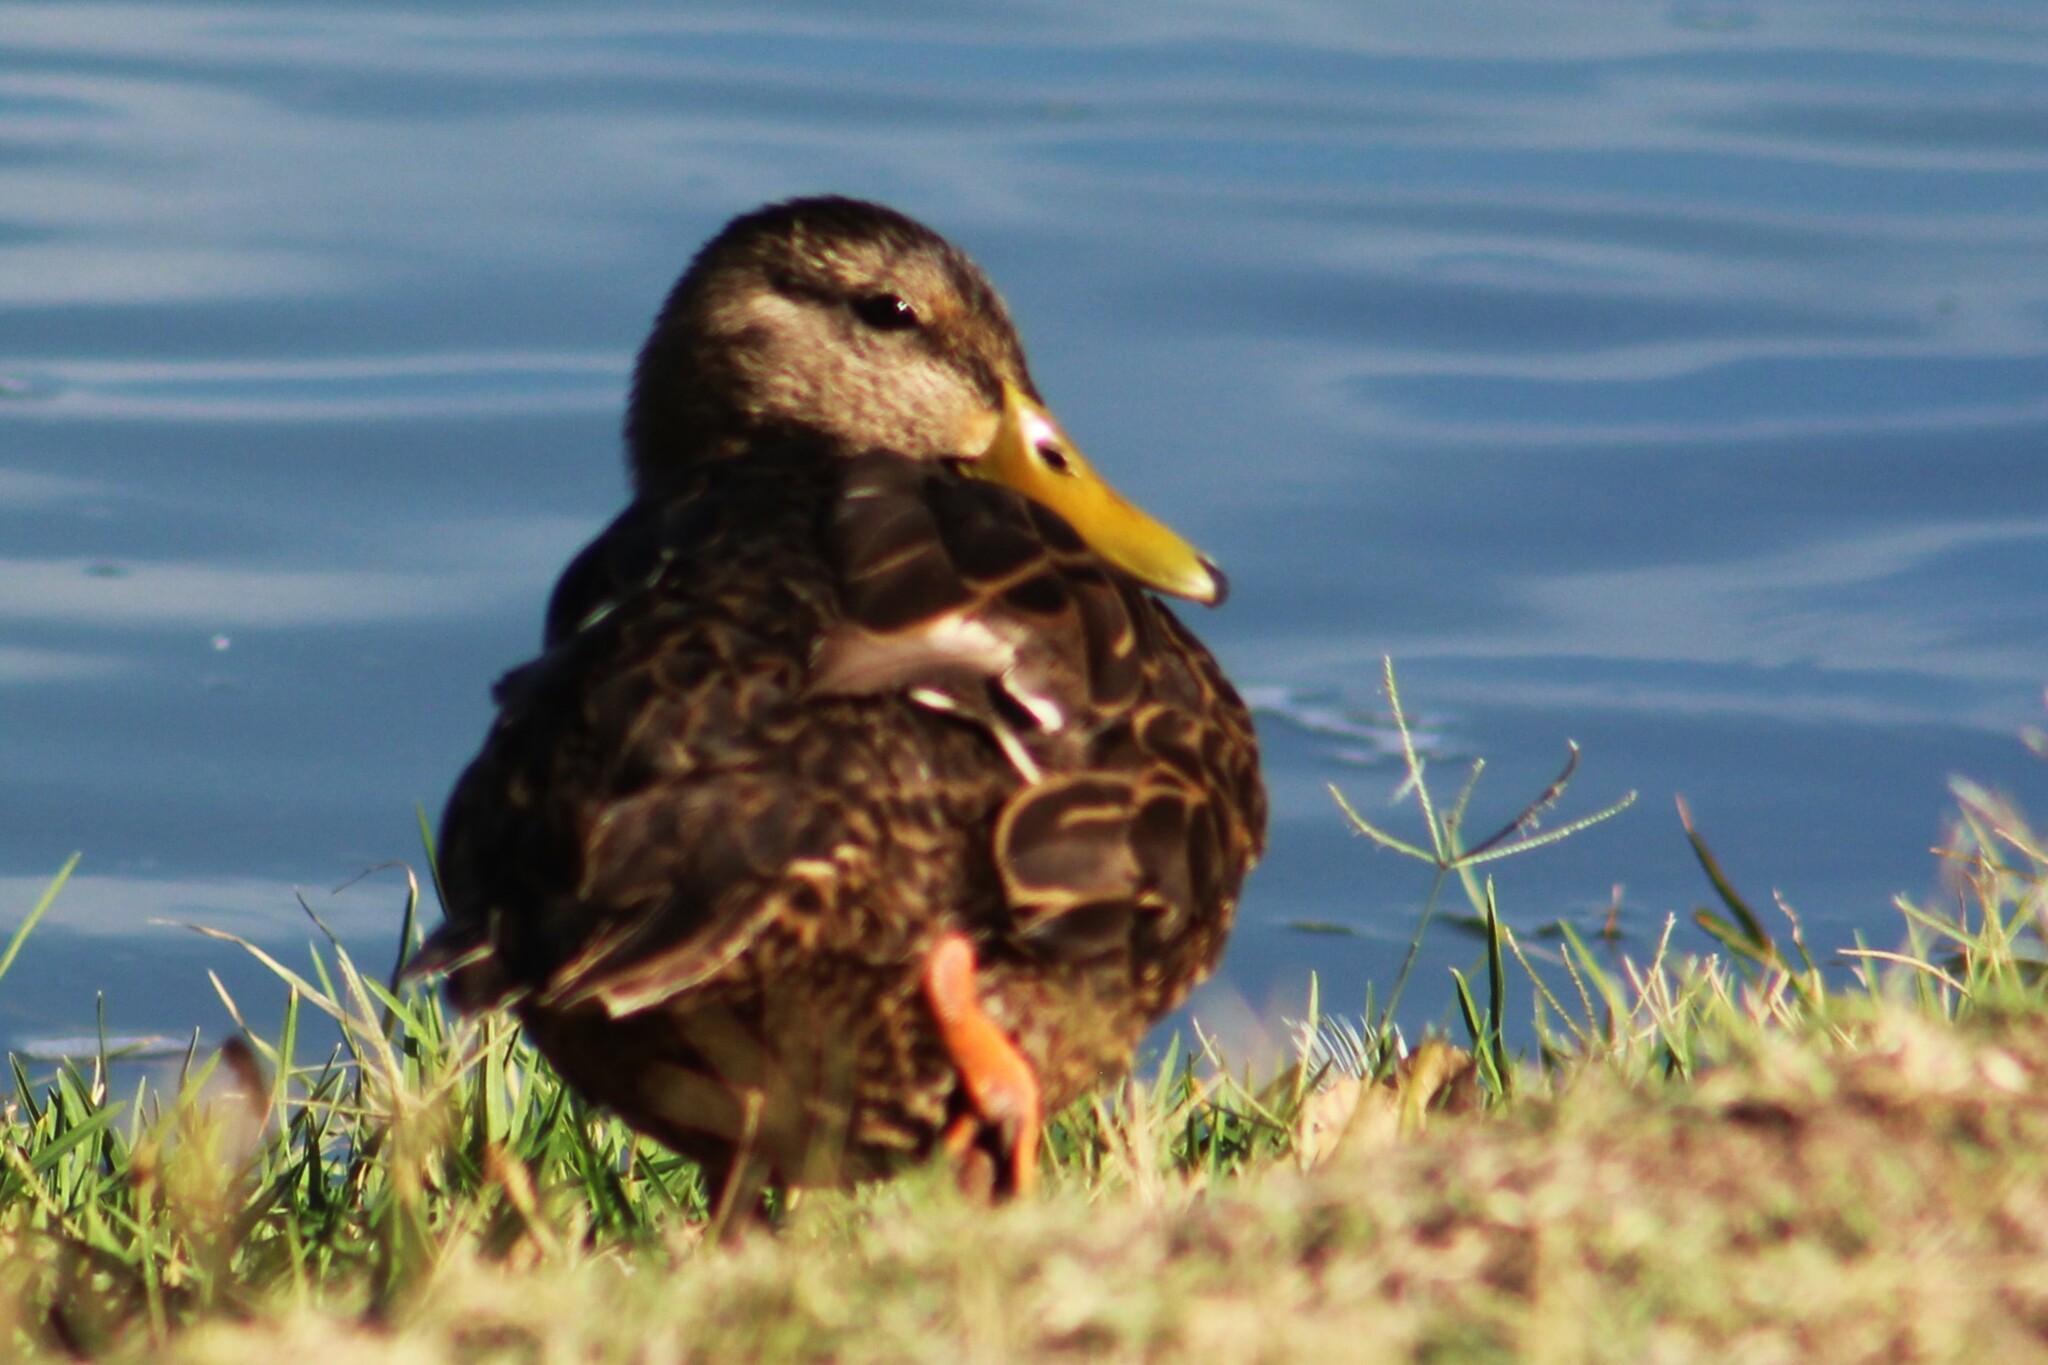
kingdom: Animalia
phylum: Chordata
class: Aves
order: Anseriformes
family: Anatidae
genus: Anas
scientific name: Anas diazi
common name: Mexican duck
